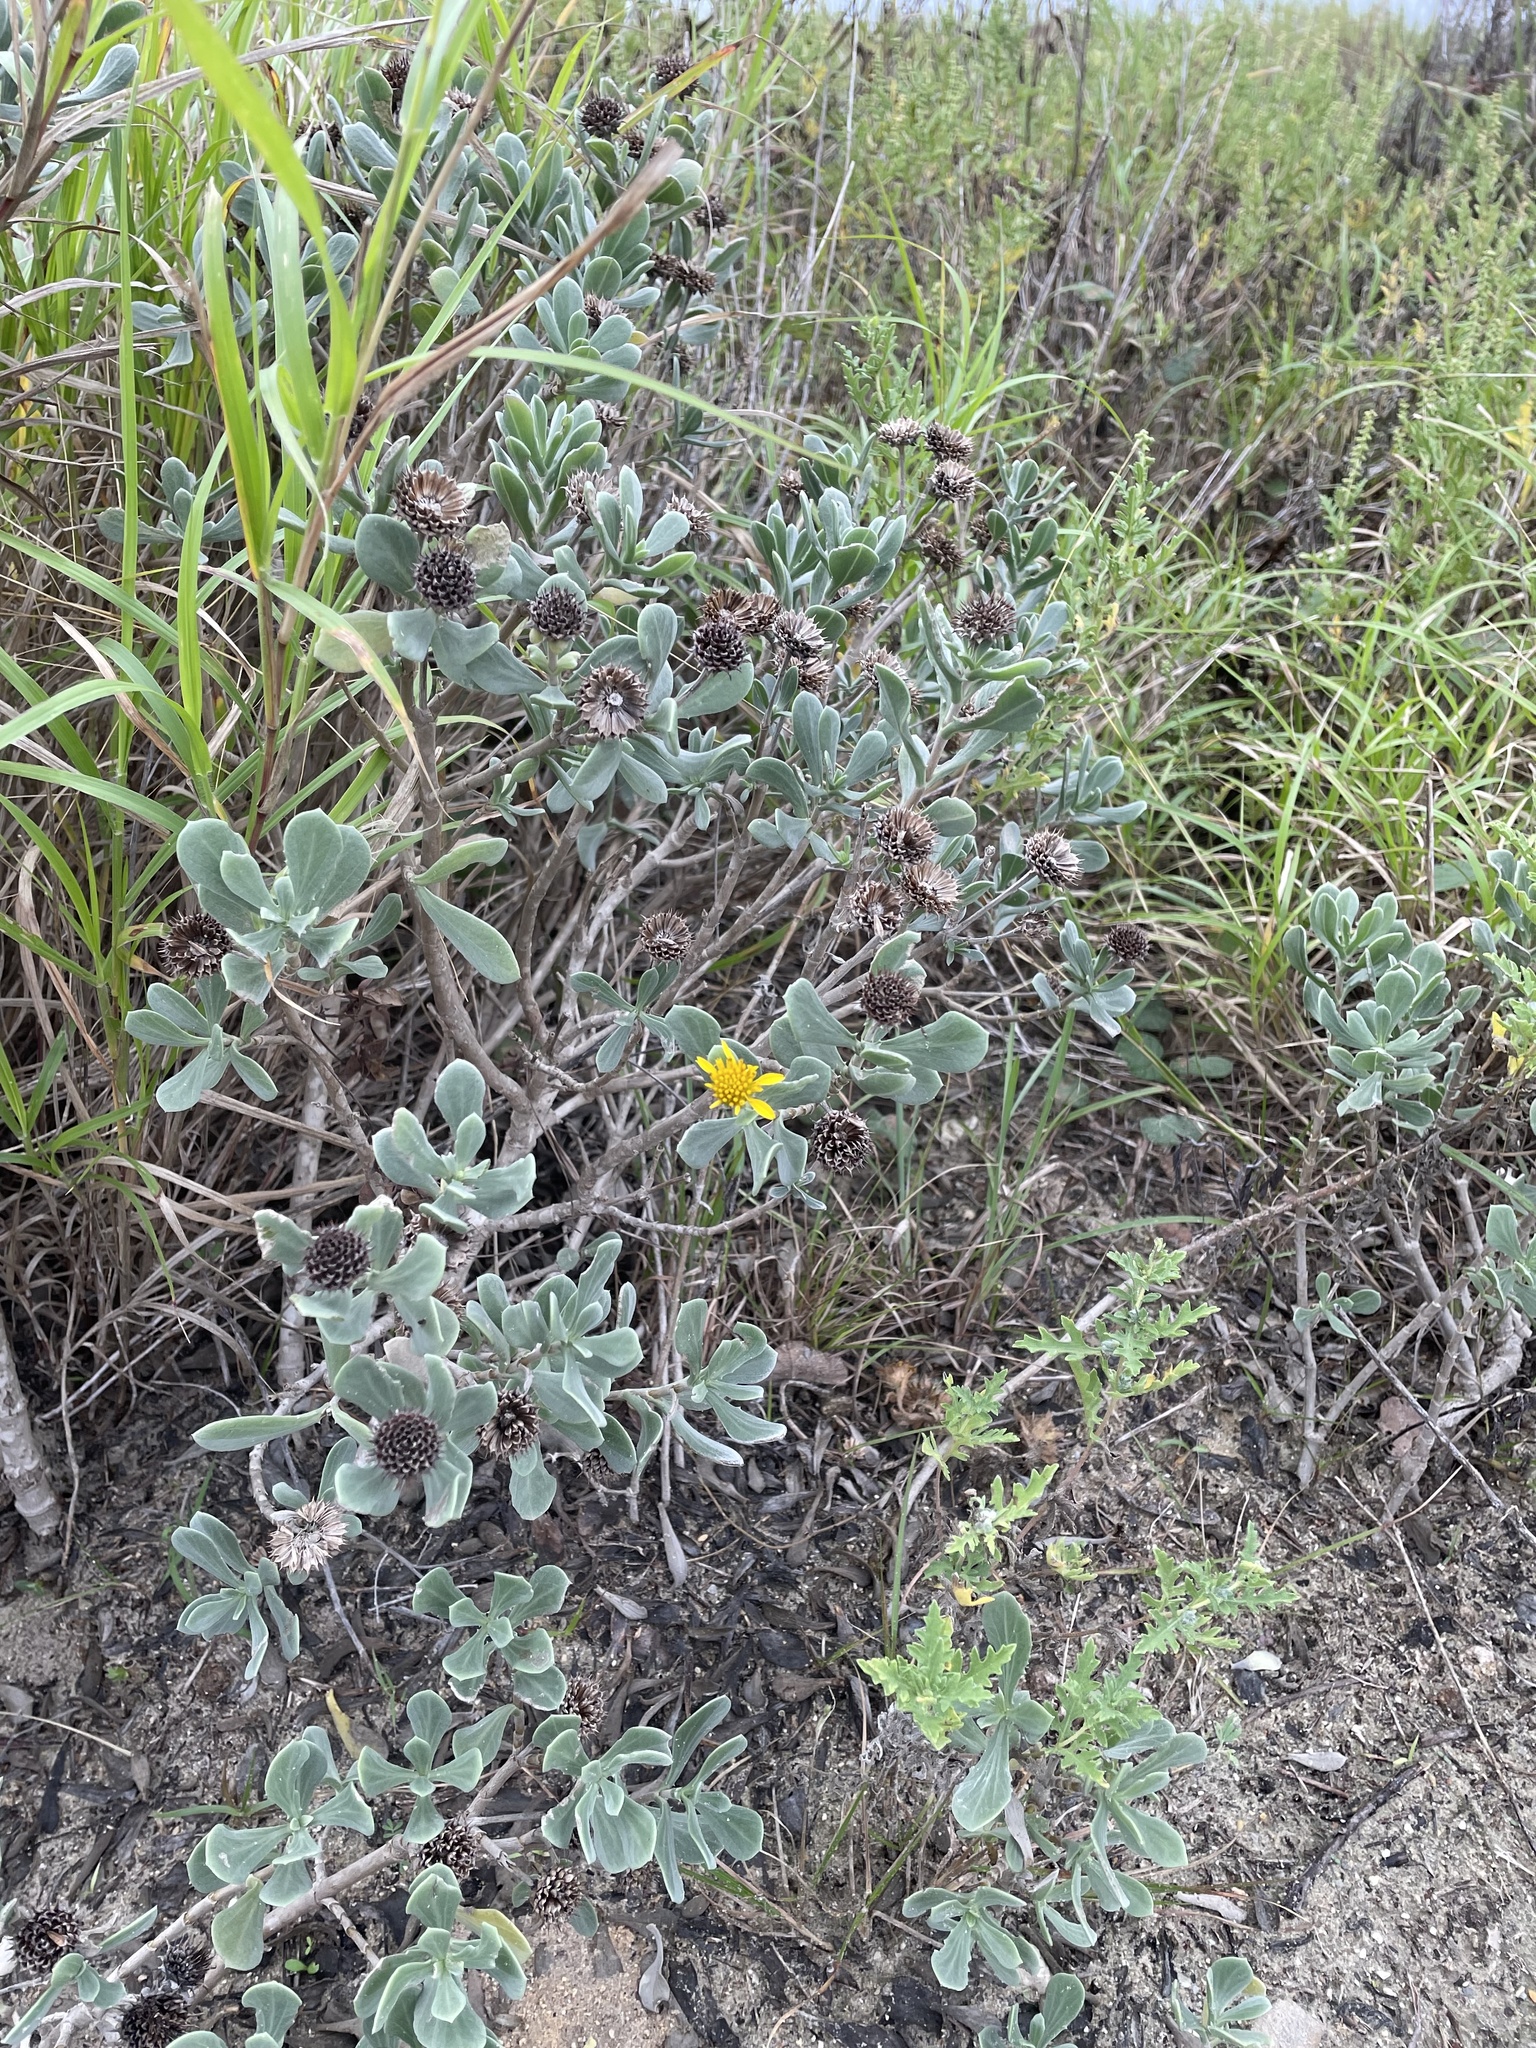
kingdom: Plantae
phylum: Tracheophyta
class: Magnoliopsida
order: Asterales
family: Asteraceae
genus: Borrichia
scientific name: Borrichia frutescens
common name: Sea oxeye
